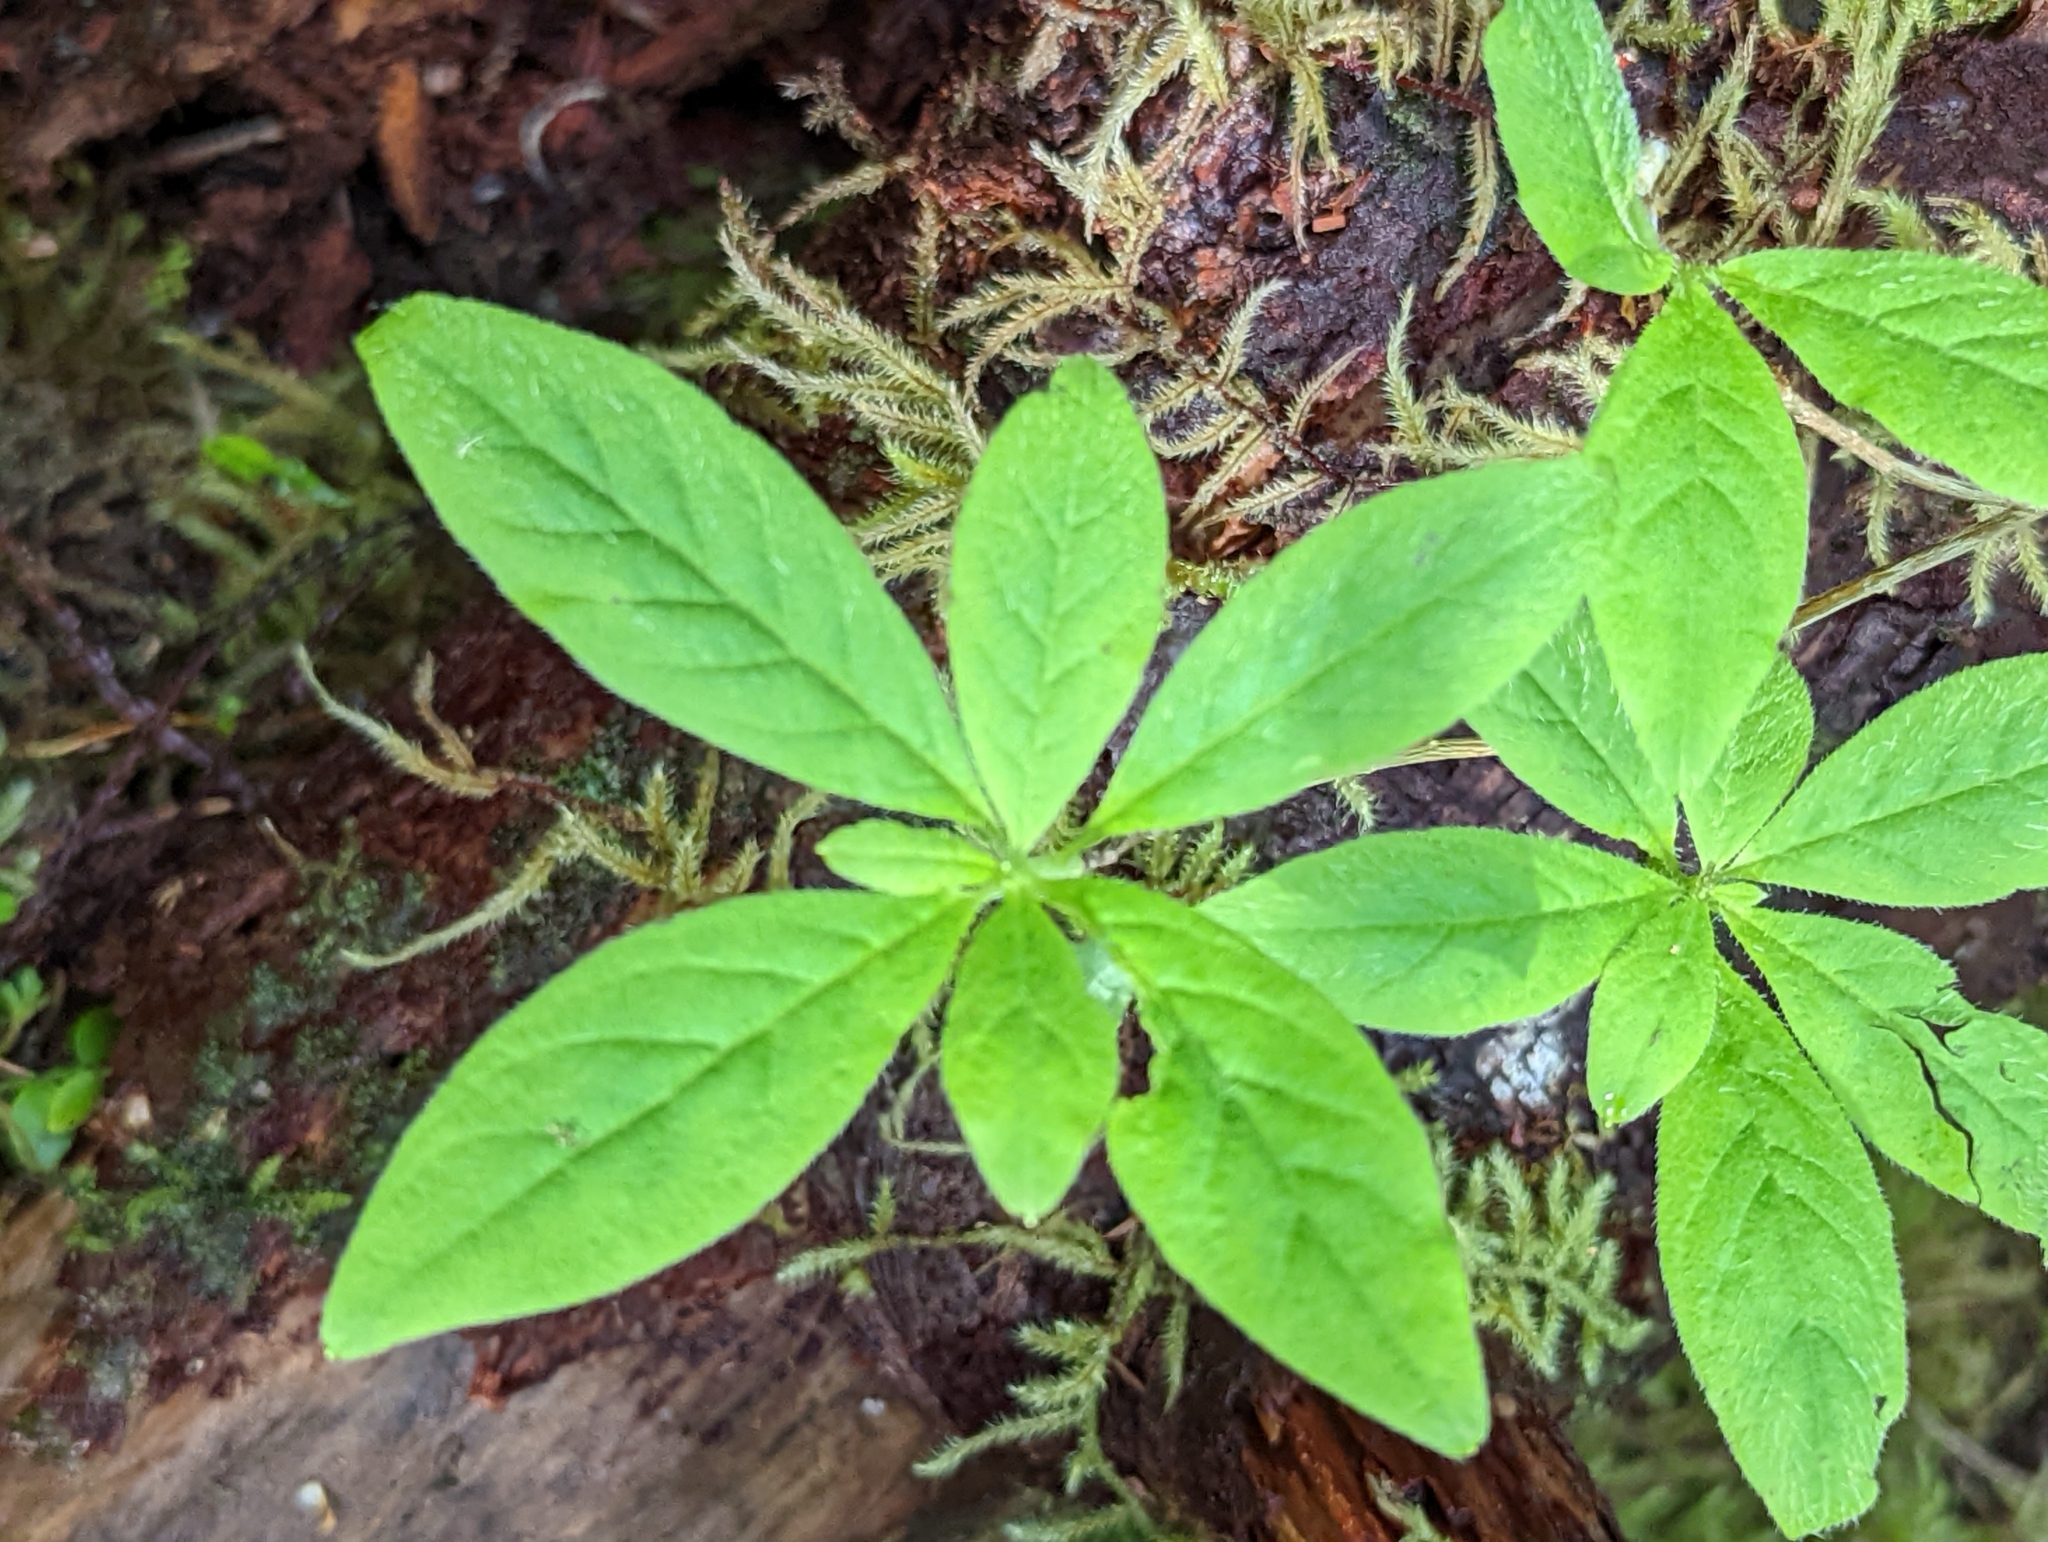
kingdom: Plantae
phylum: Tracheophyta
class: Magnoliopsida
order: Ericales
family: Ericaceae
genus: Rhododendron
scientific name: Rhododendron menziesii
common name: Pacific menziesia
